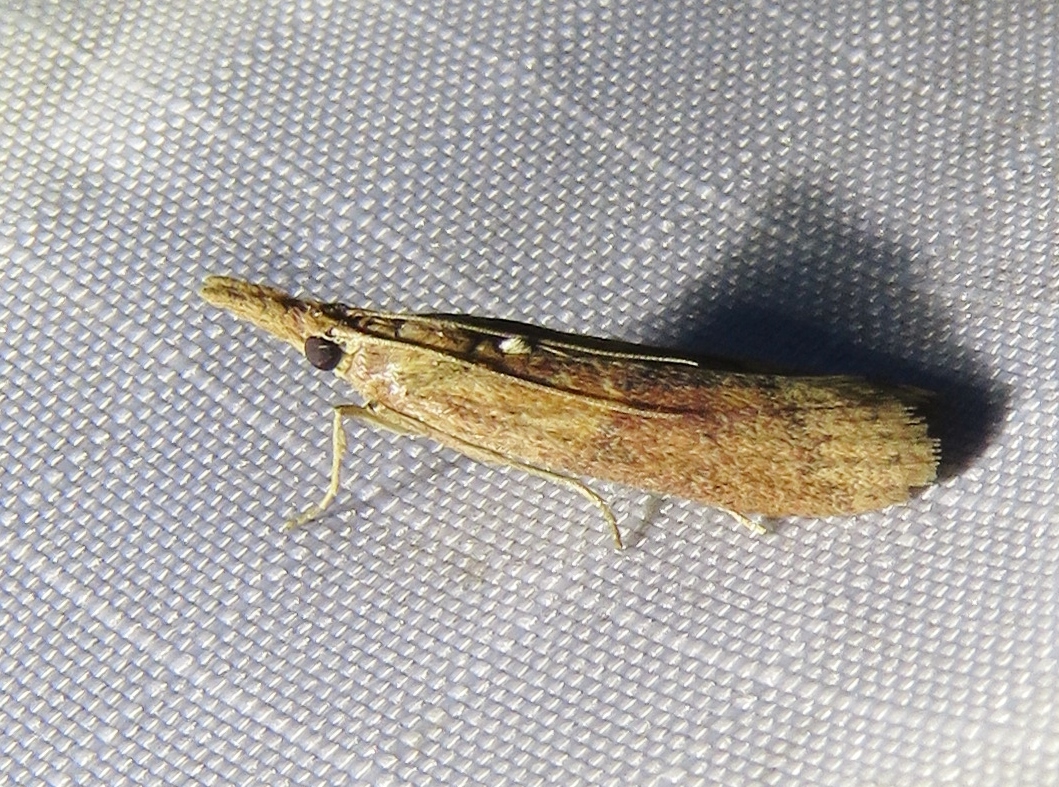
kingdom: Animalia
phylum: Arthropoda
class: Insecta
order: Lepidoptera
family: Pyralidae
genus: Macrorrhinia
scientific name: Macrorrhinia endonephele
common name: Alligator weed stemborer moth
